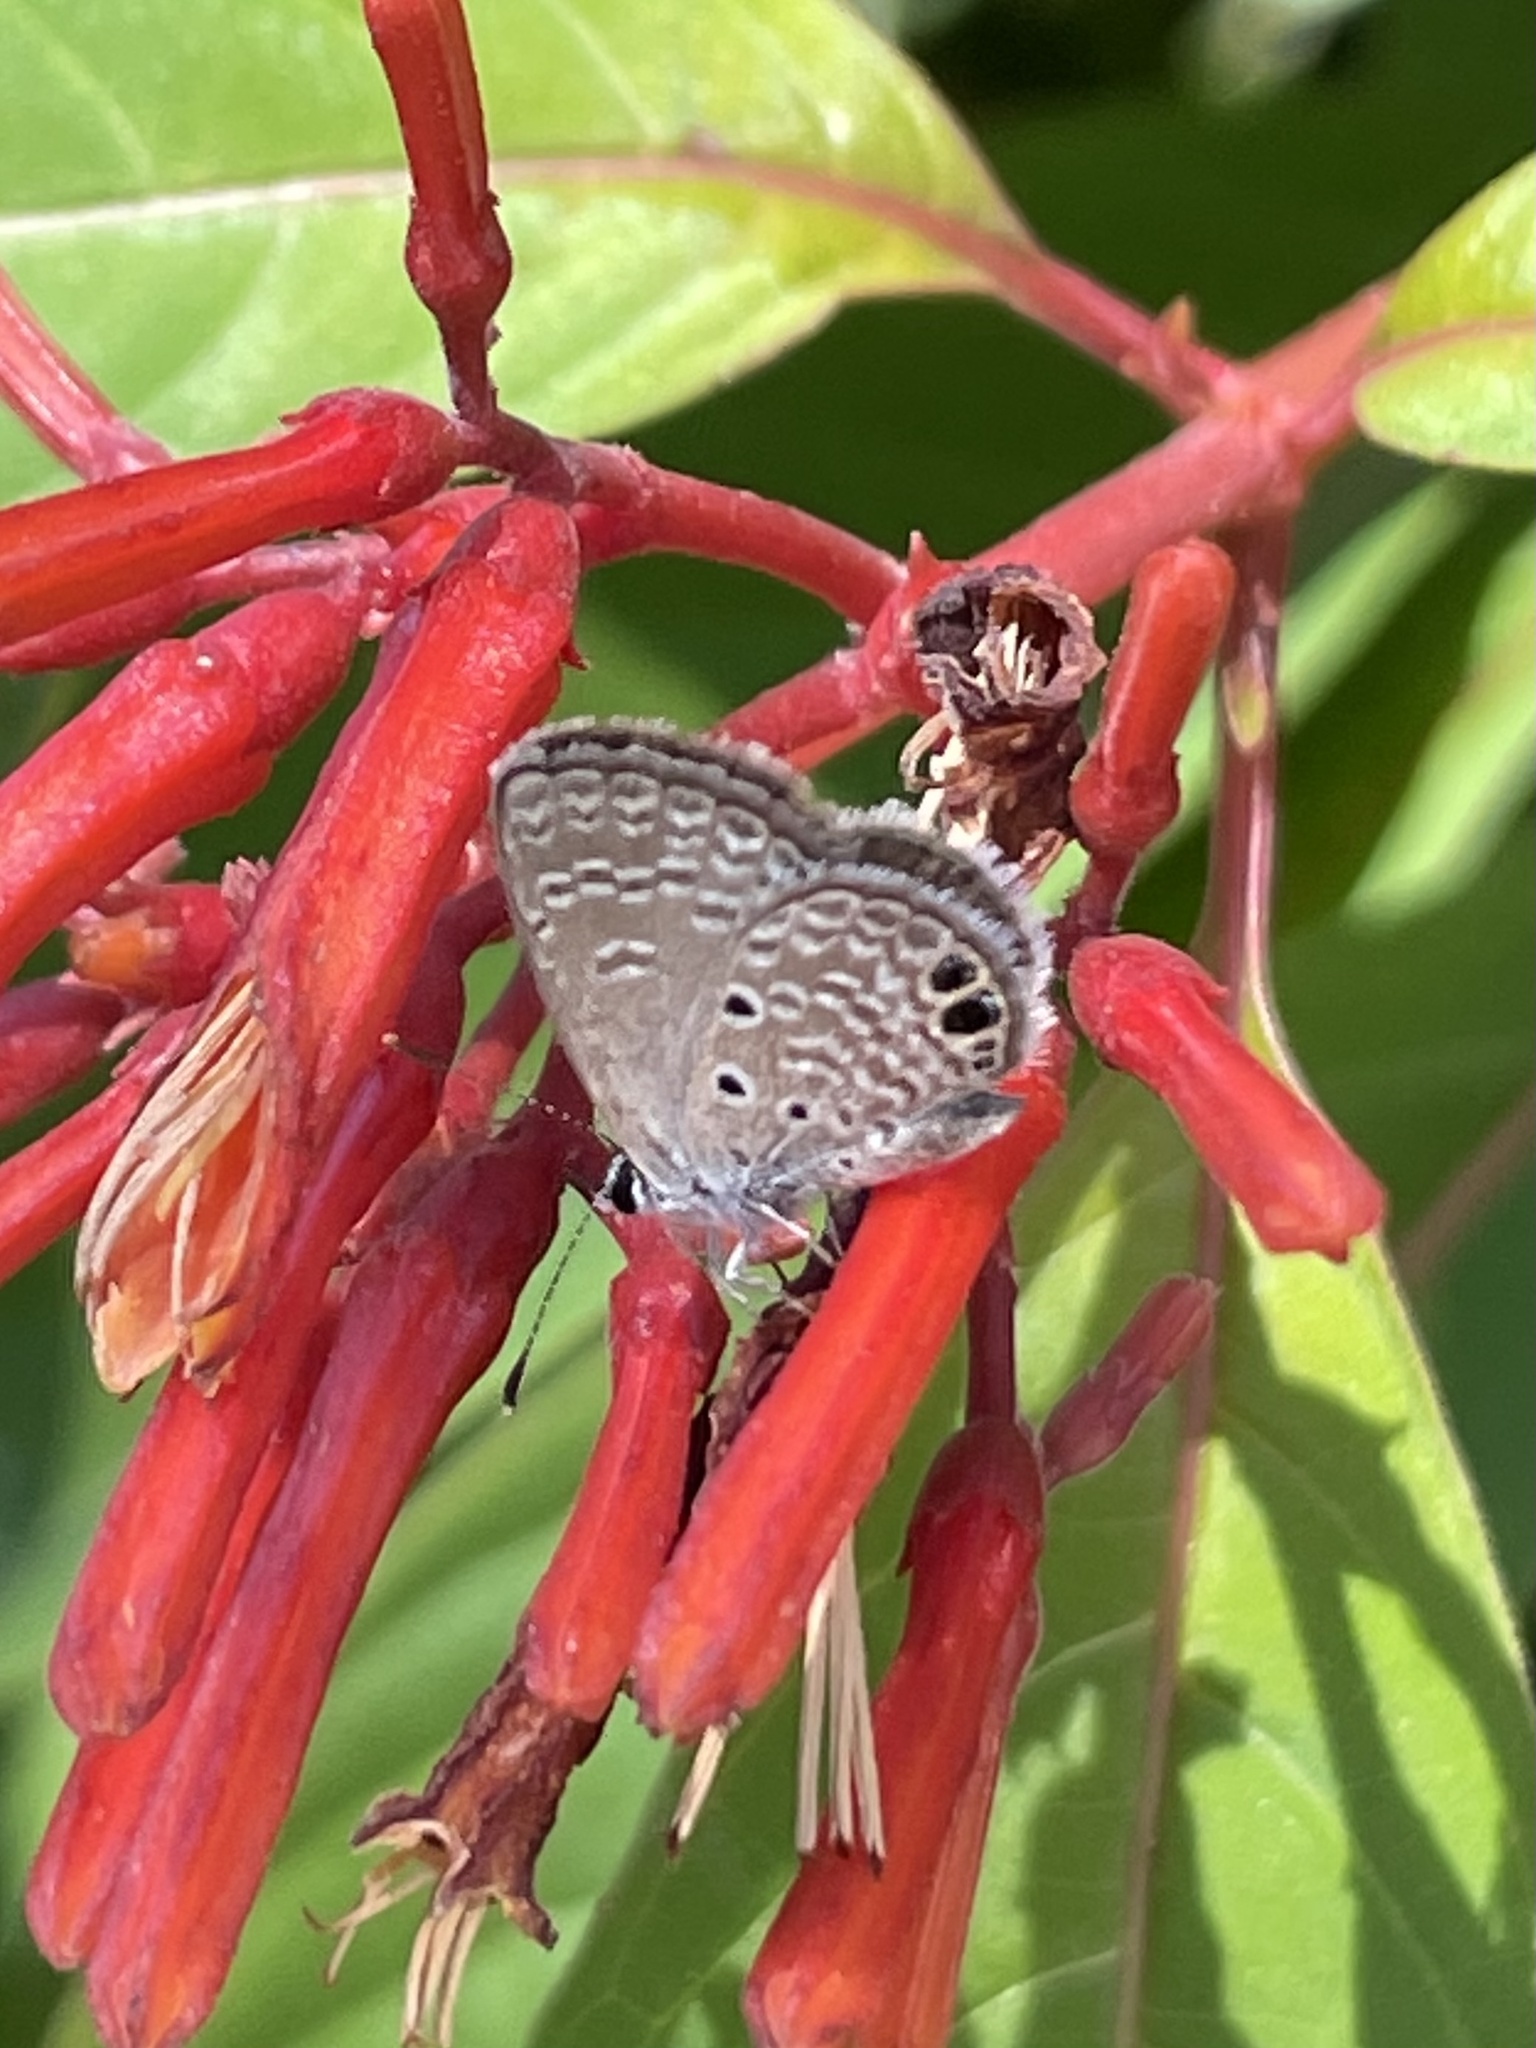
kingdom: Animalia
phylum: Arthropoda
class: Insecta
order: Lepidoptera
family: Lycaenidae
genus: Hemiargus
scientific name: Hemiargus ceraunus
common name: Ceraunus blue
